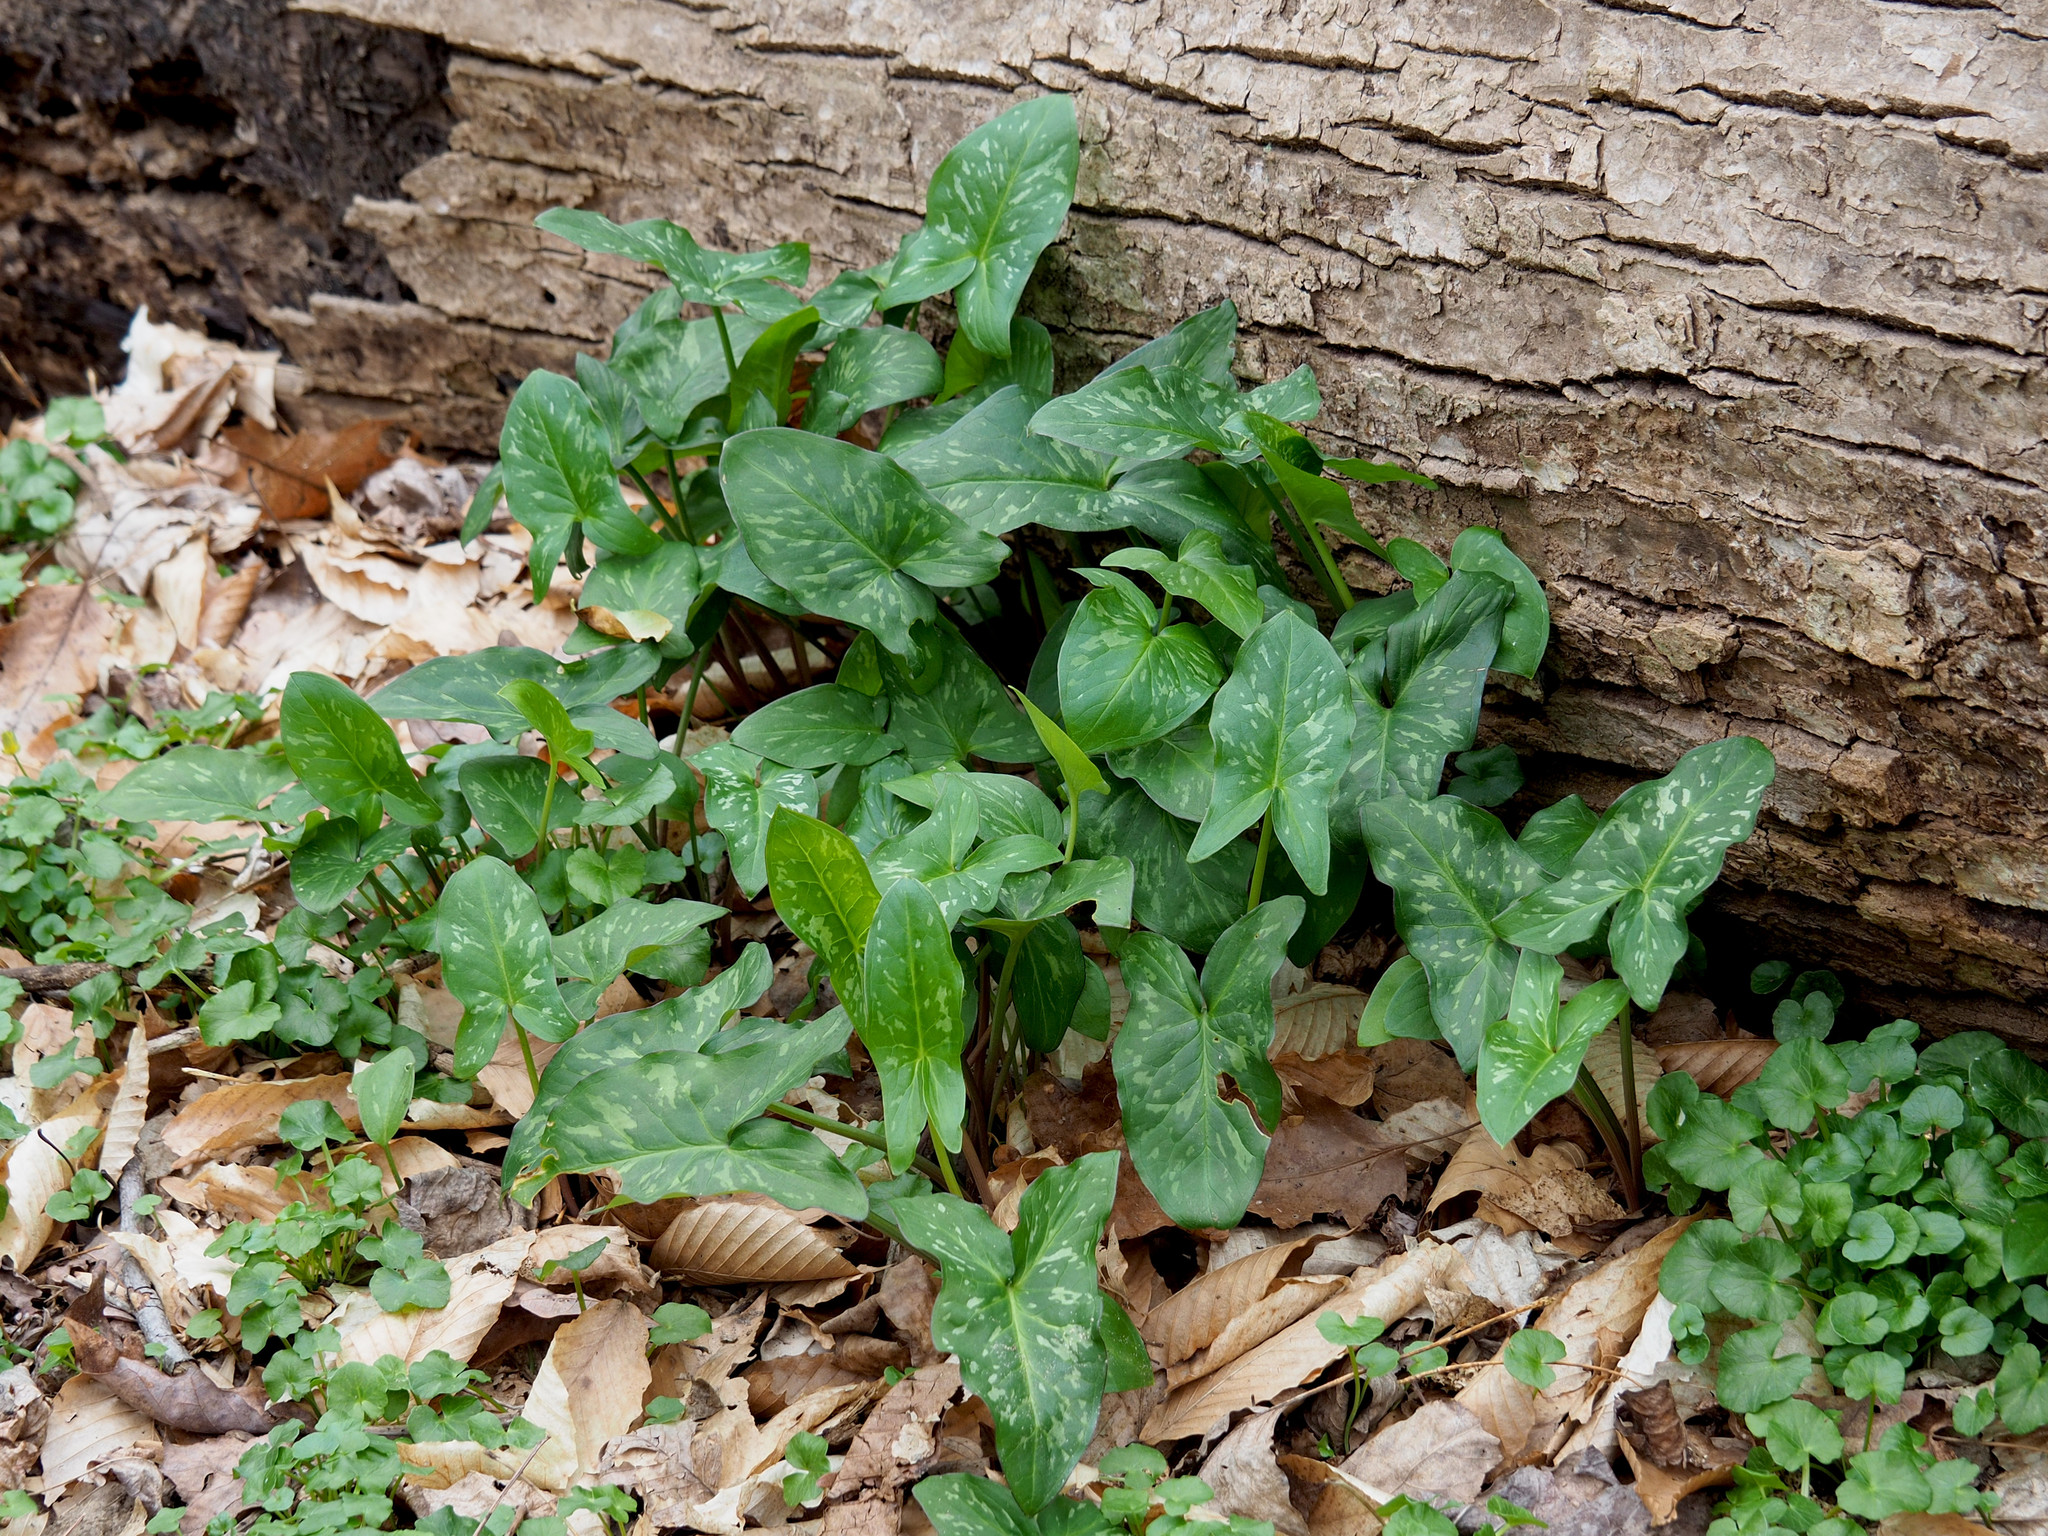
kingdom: Plantae
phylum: Tracheophyta
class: Liliopsida
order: Alismatales
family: Araceae
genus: Arum
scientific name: Arum italicum
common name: Italian lords-and-ladies
